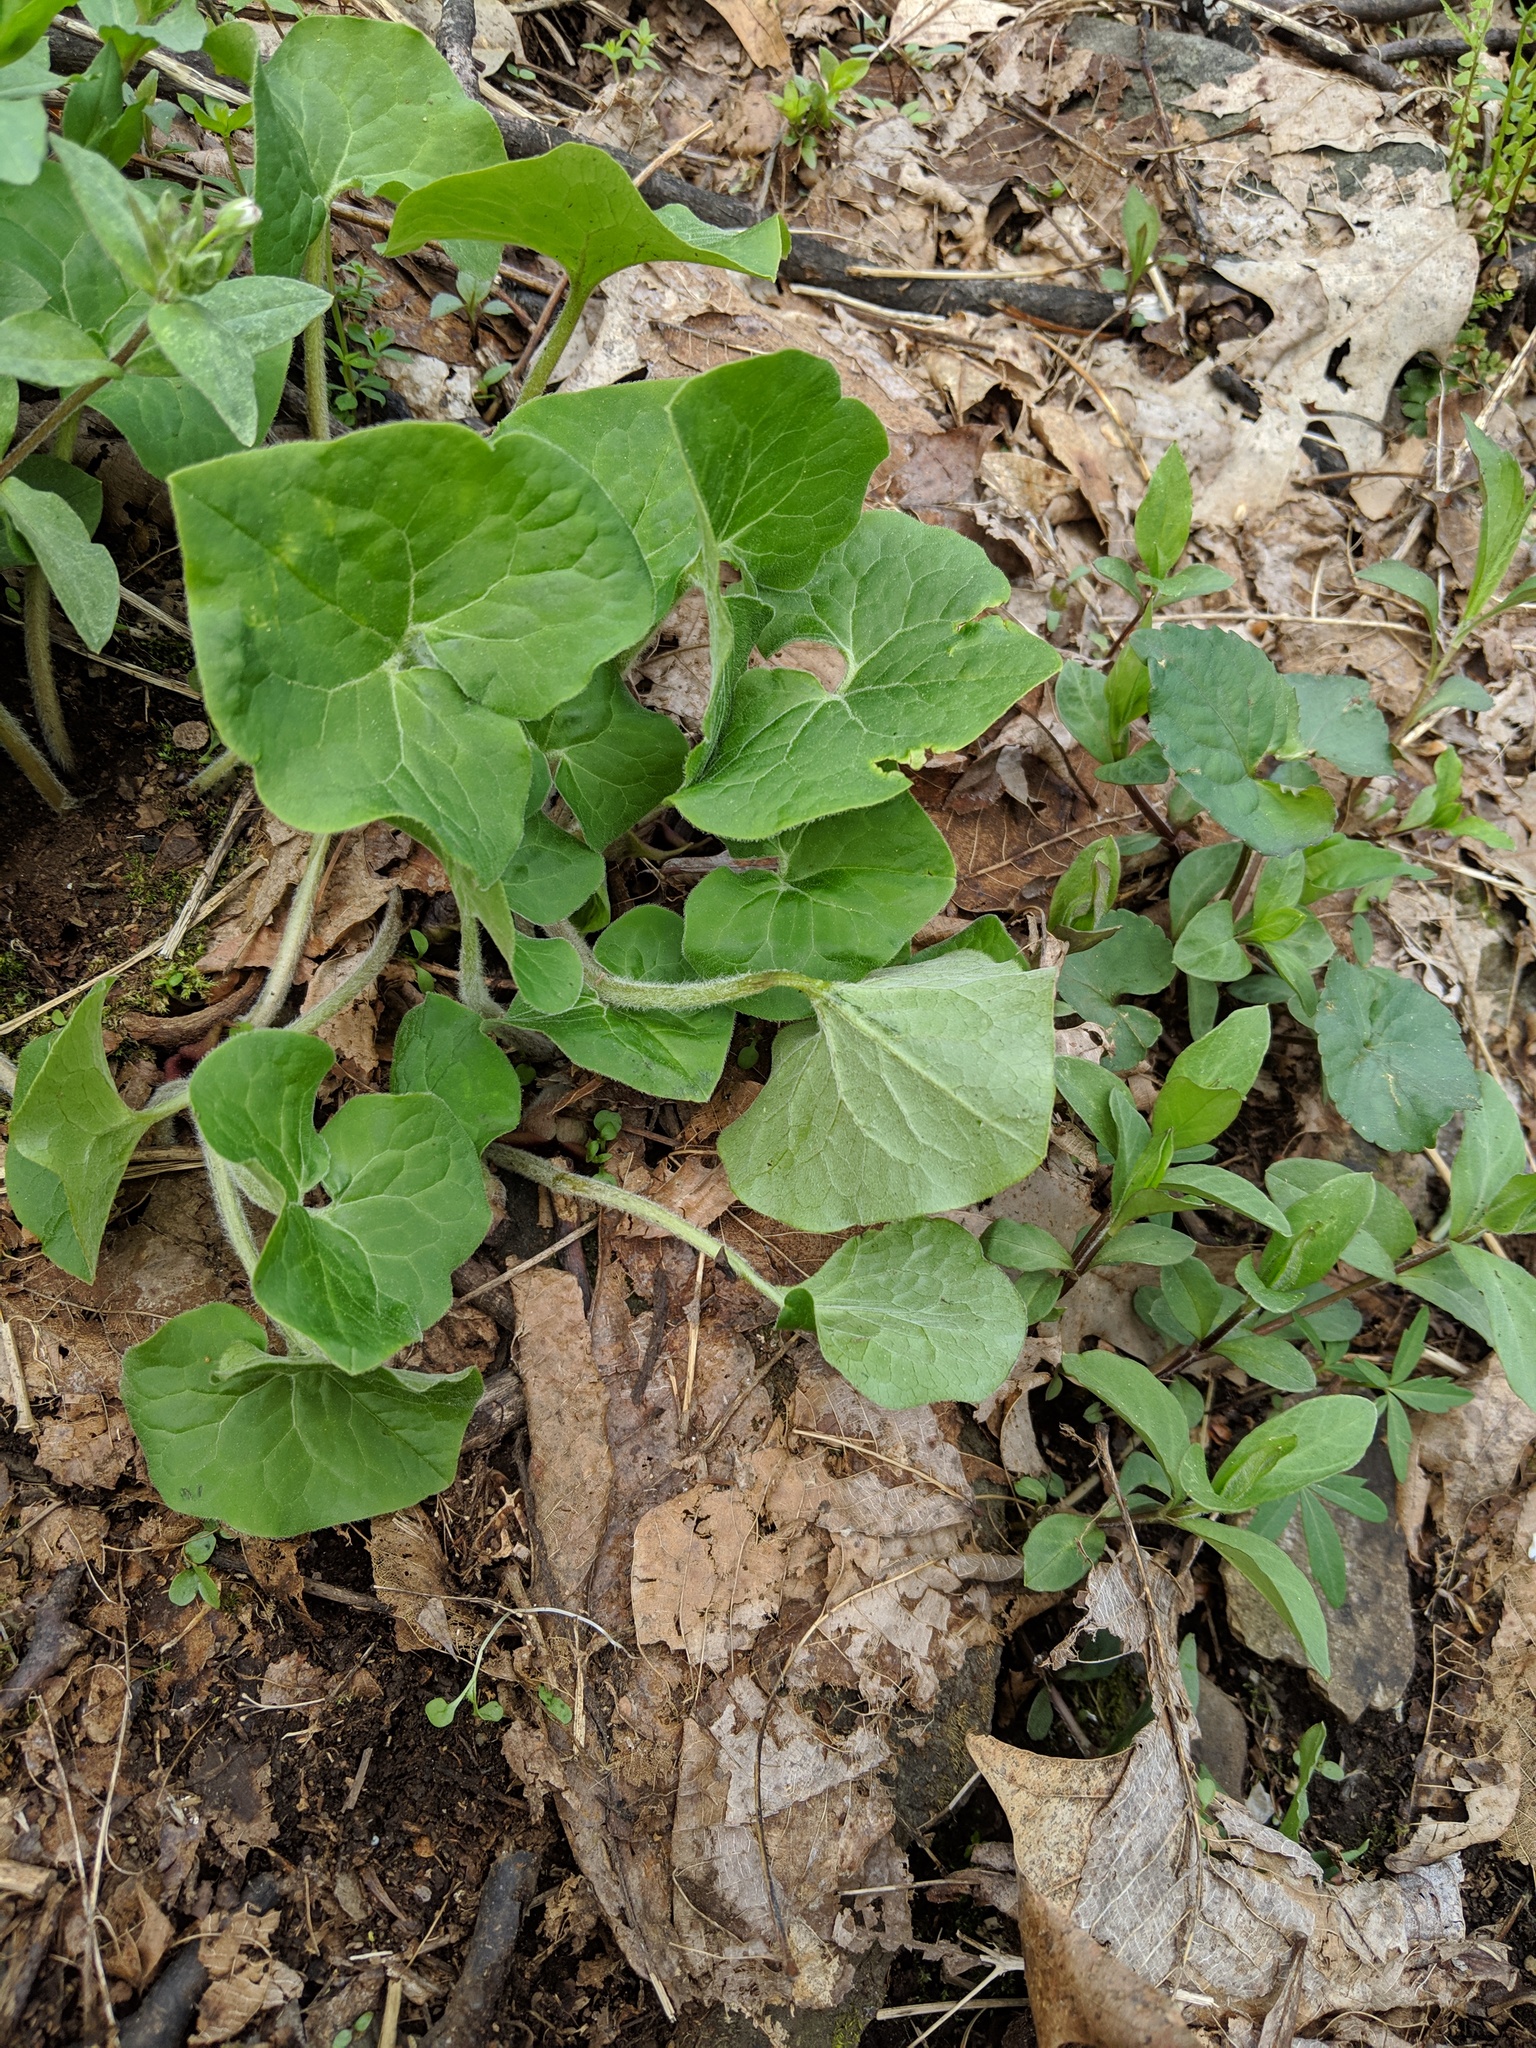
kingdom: Plantae
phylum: Tracheophyta
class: Magnoliopsida
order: Piperales
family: Aristolochiaceae
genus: Asarum
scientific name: Asarum canadense
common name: Wild ginger
